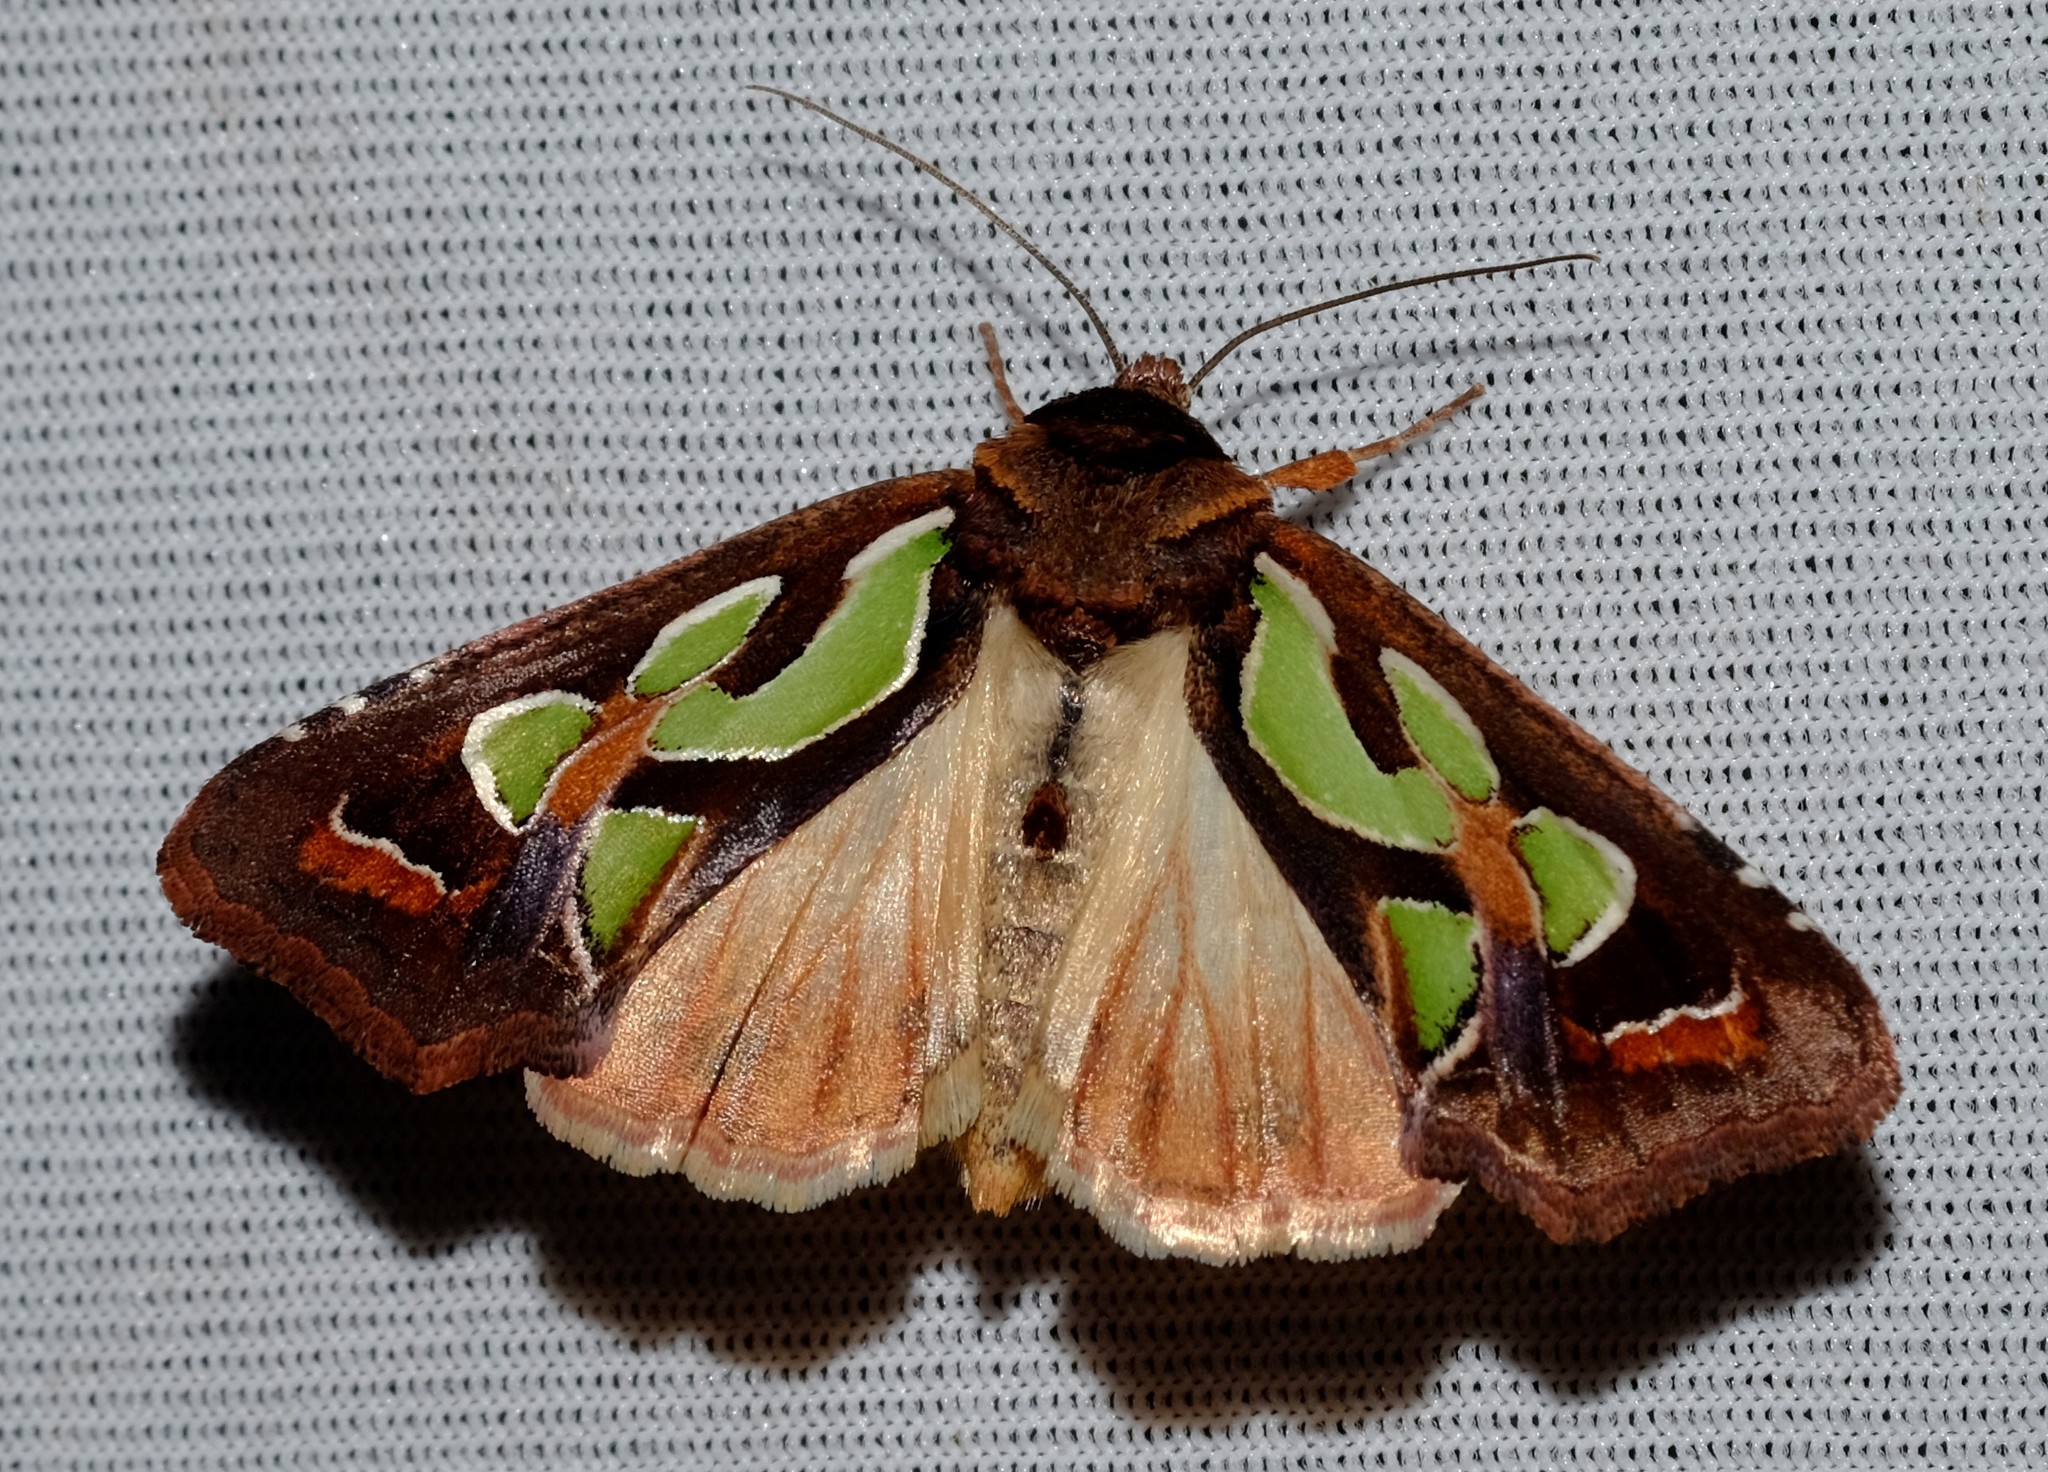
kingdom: Animalia
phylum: Arthropoda
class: Insecta
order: Lepidoptera
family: Noctuidae
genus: Cosmodes
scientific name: Cosmodes elegans
